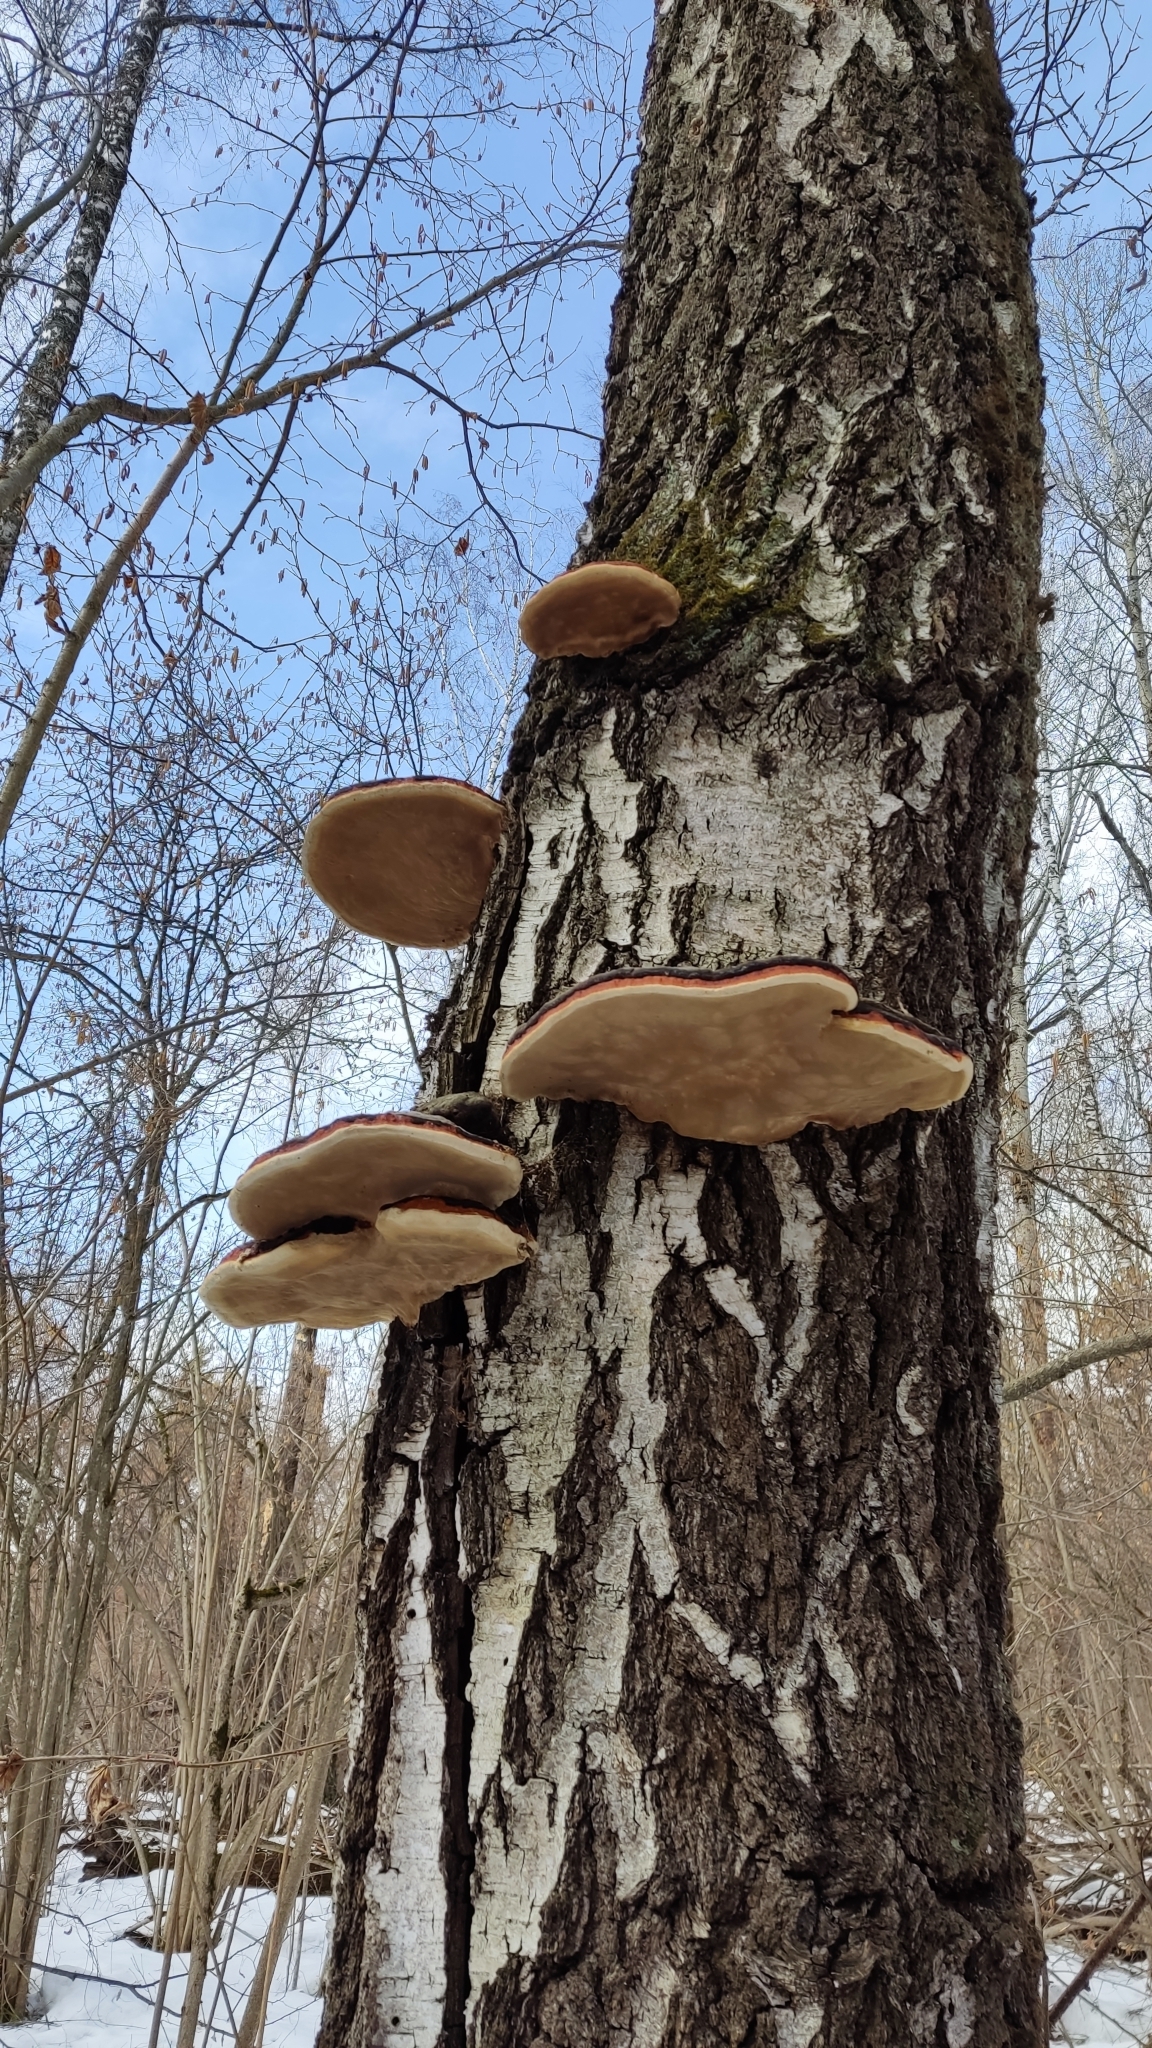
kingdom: Fungi
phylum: Basidiomycota
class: Agaricomycetes
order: Polyporales
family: Fomitopsidaceae
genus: Fomitopsis
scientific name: Fomitopsis pinicola
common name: Red-belted bracket
